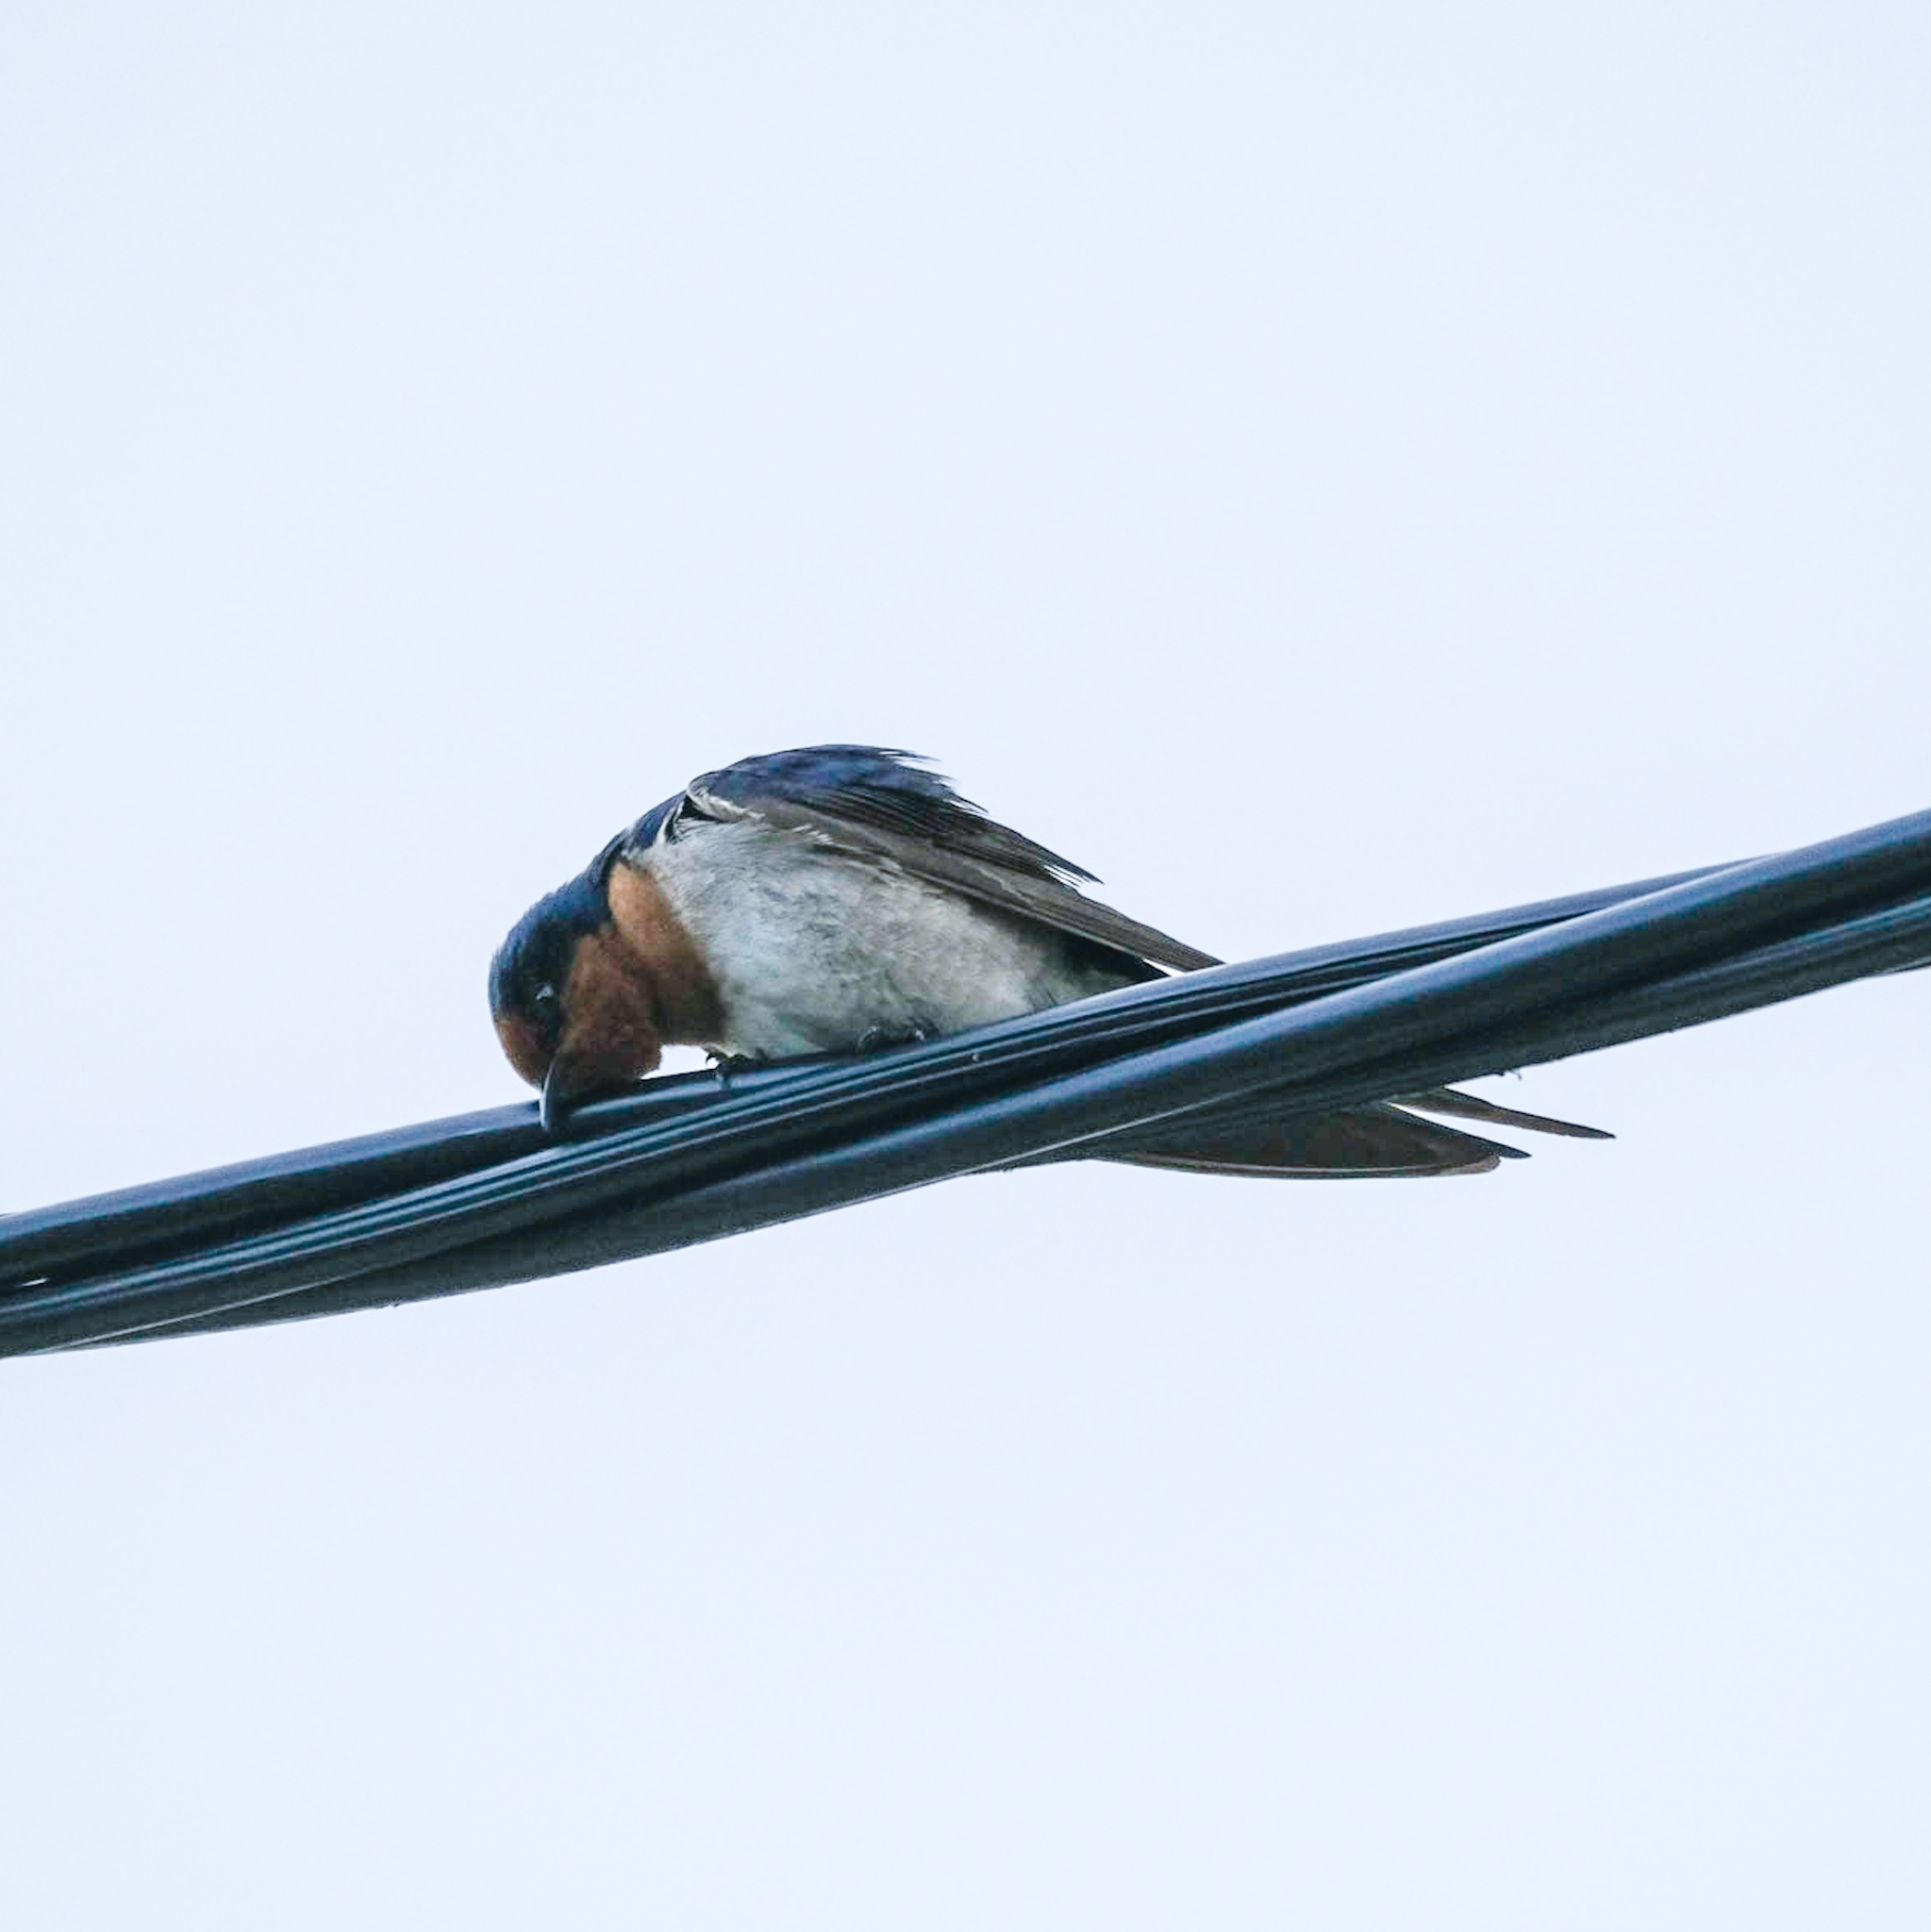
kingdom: Animalia
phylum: Chordata
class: Aves
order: Passeriformes
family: Hirundinidae
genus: Hirundo
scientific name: Hirundo neoxena
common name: Welcome swallow
